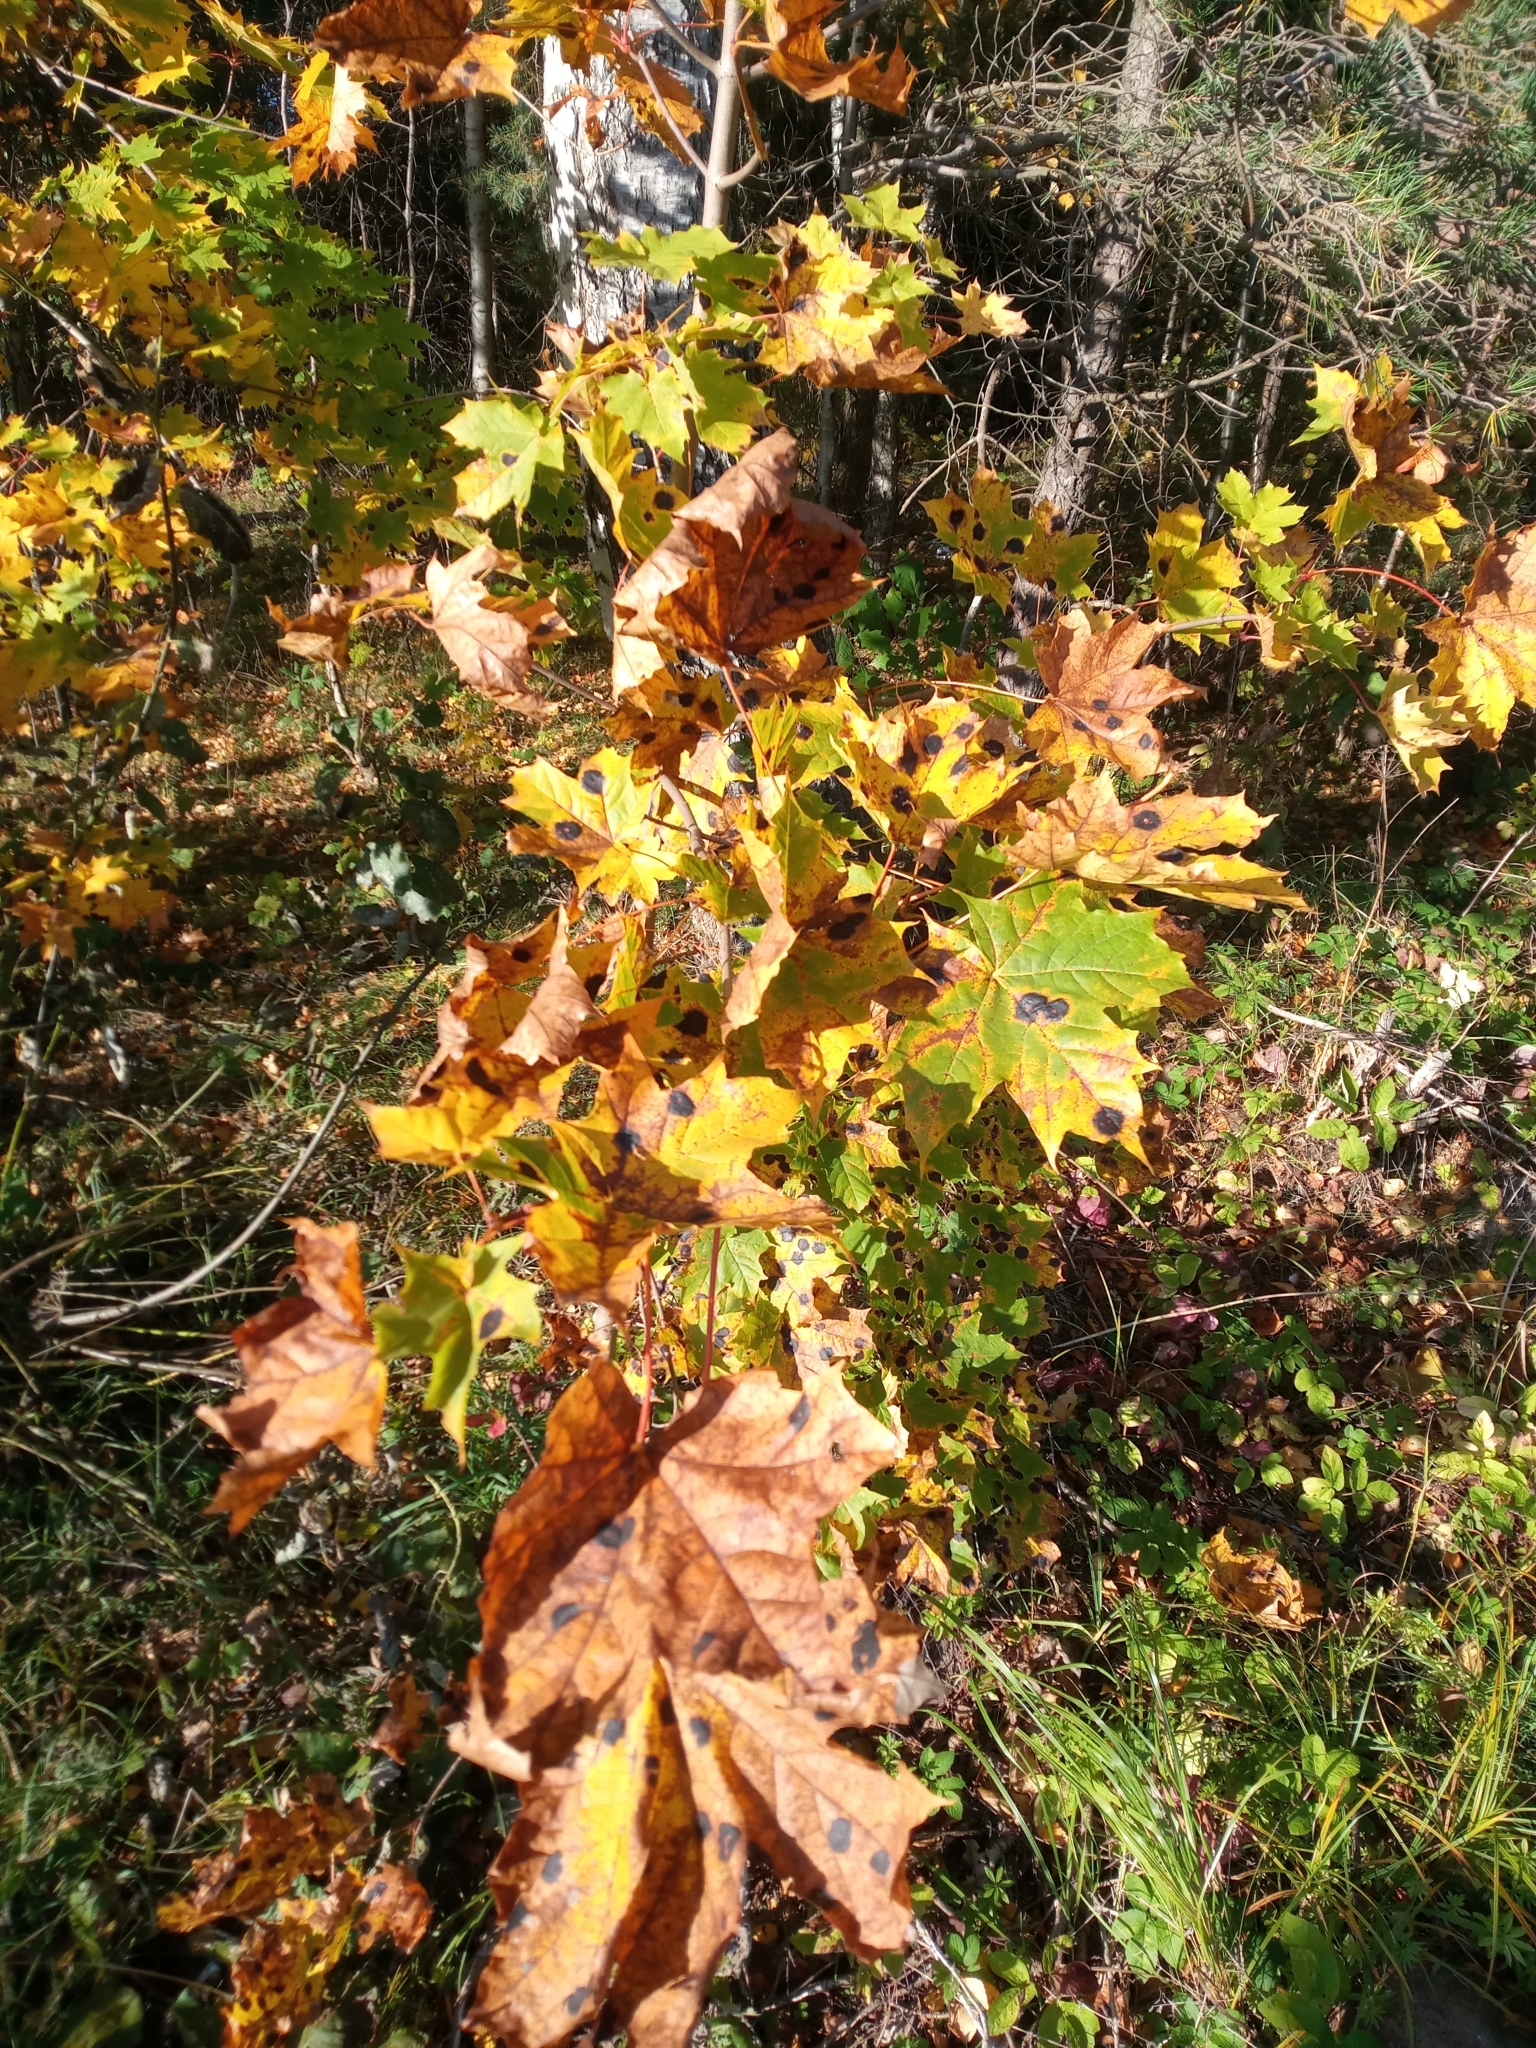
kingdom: Plantae
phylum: Tracheophyta
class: Magnoliopsida
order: Sapindales
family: Sapindaceae
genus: Acer
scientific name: Acer platanoides
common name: Norway maple
